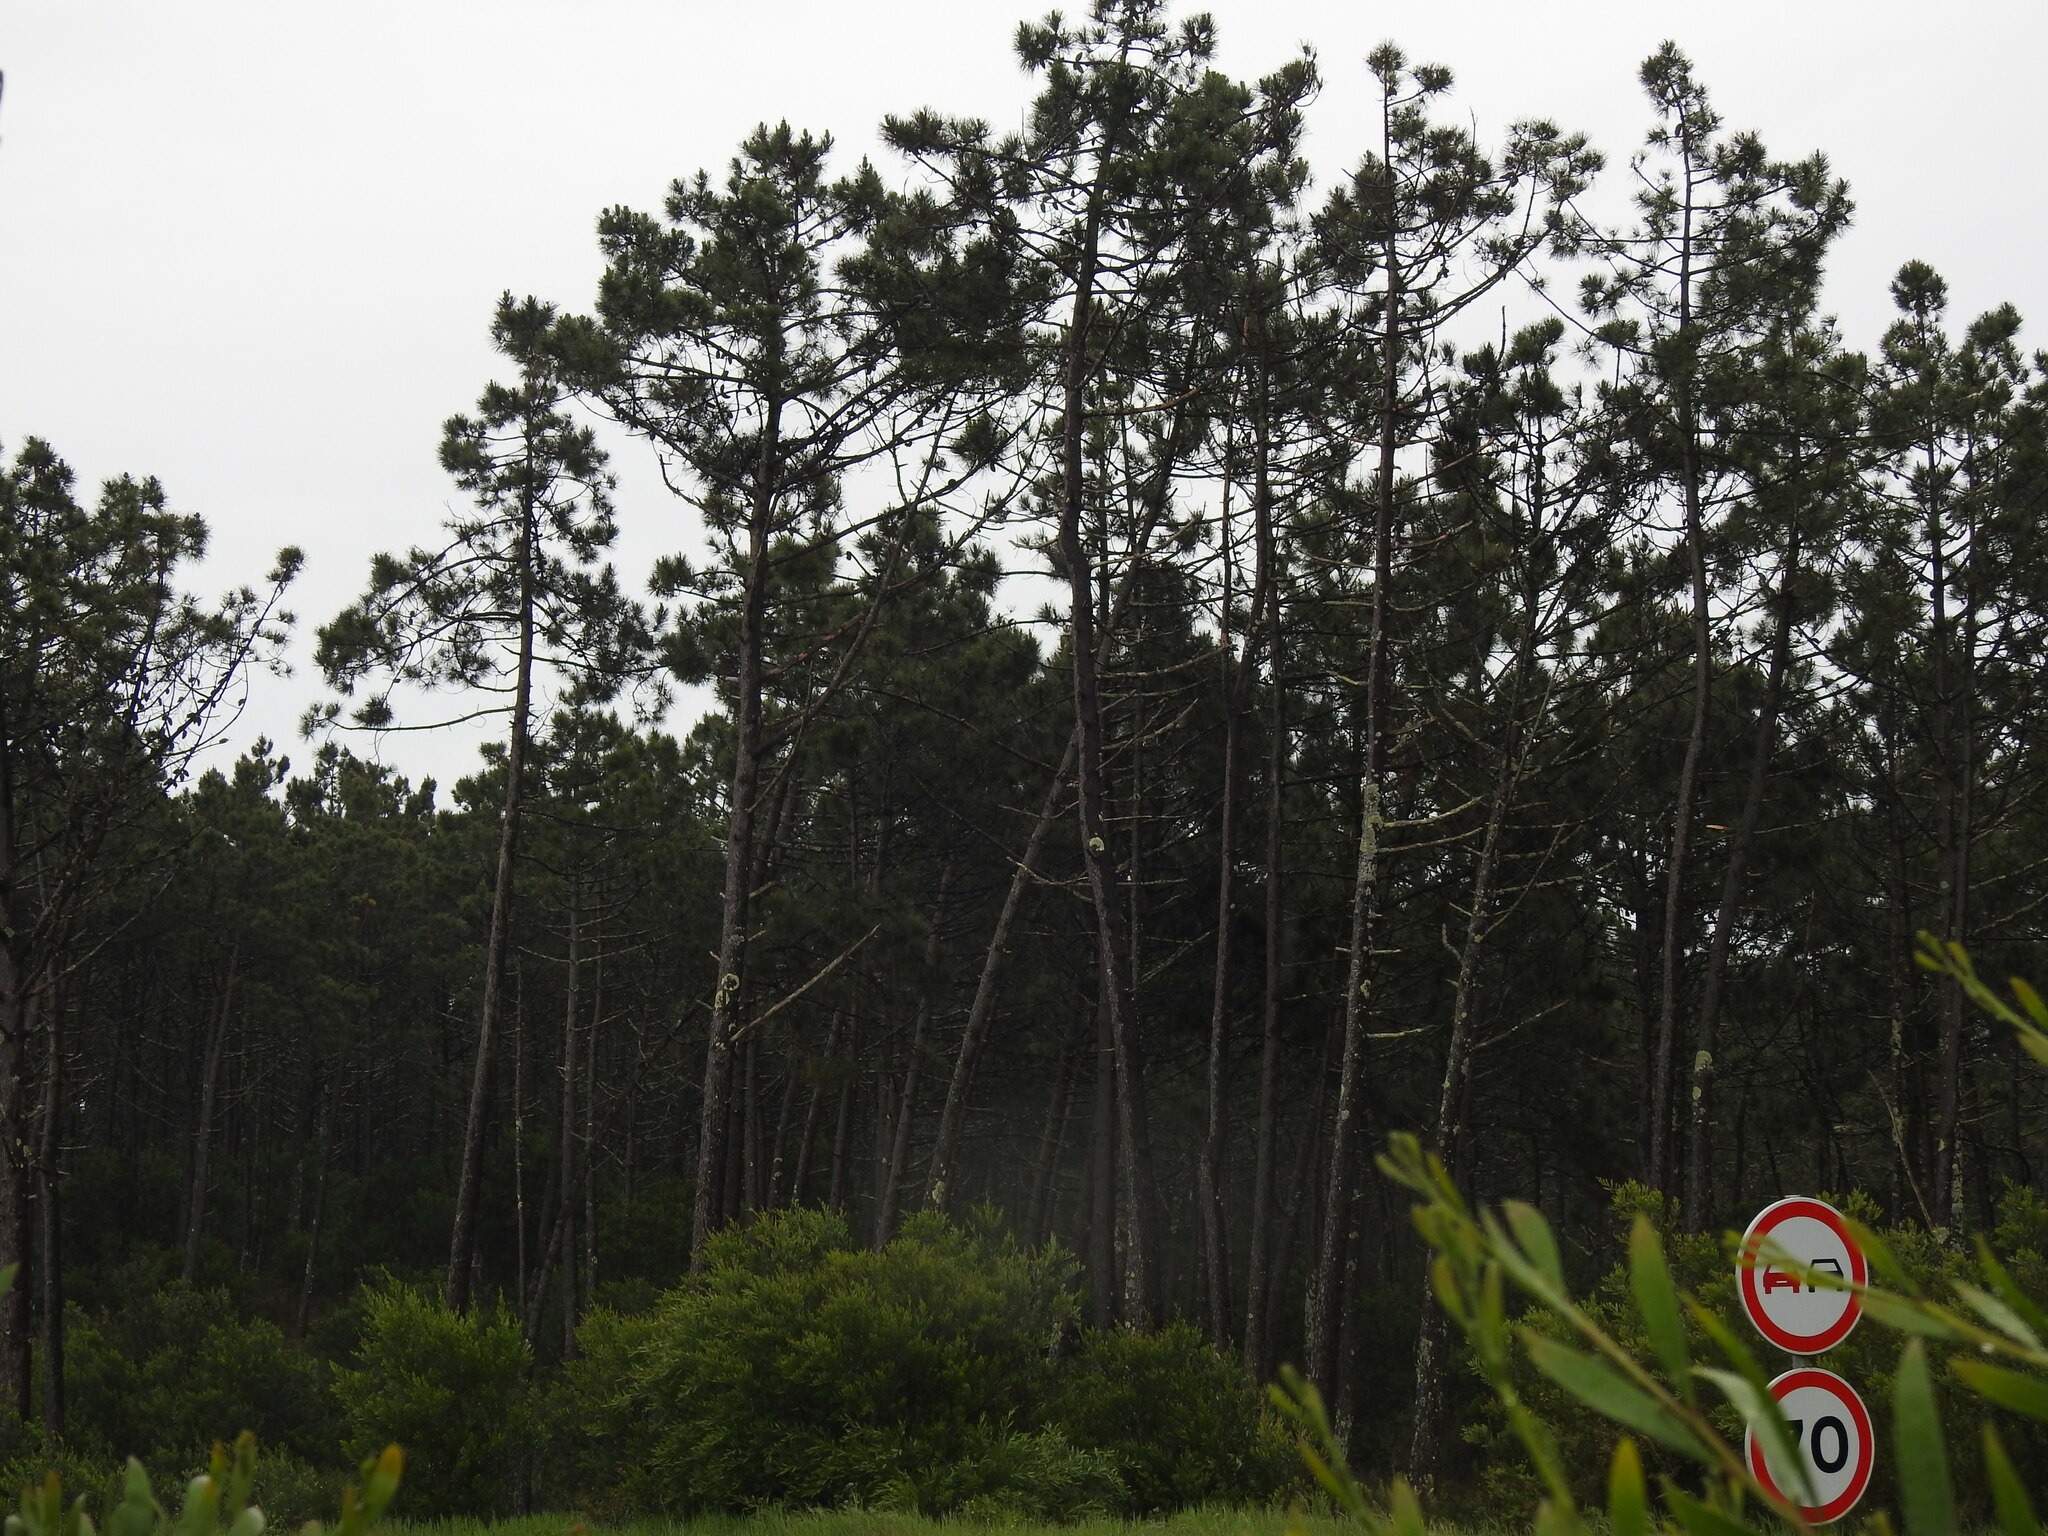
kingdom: Plantae
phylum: Tracheophyta
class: Pinopsida
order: Pinales
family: Pinaceae
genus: Pinus
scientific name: Pinus pinaster
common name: Maritime pine
